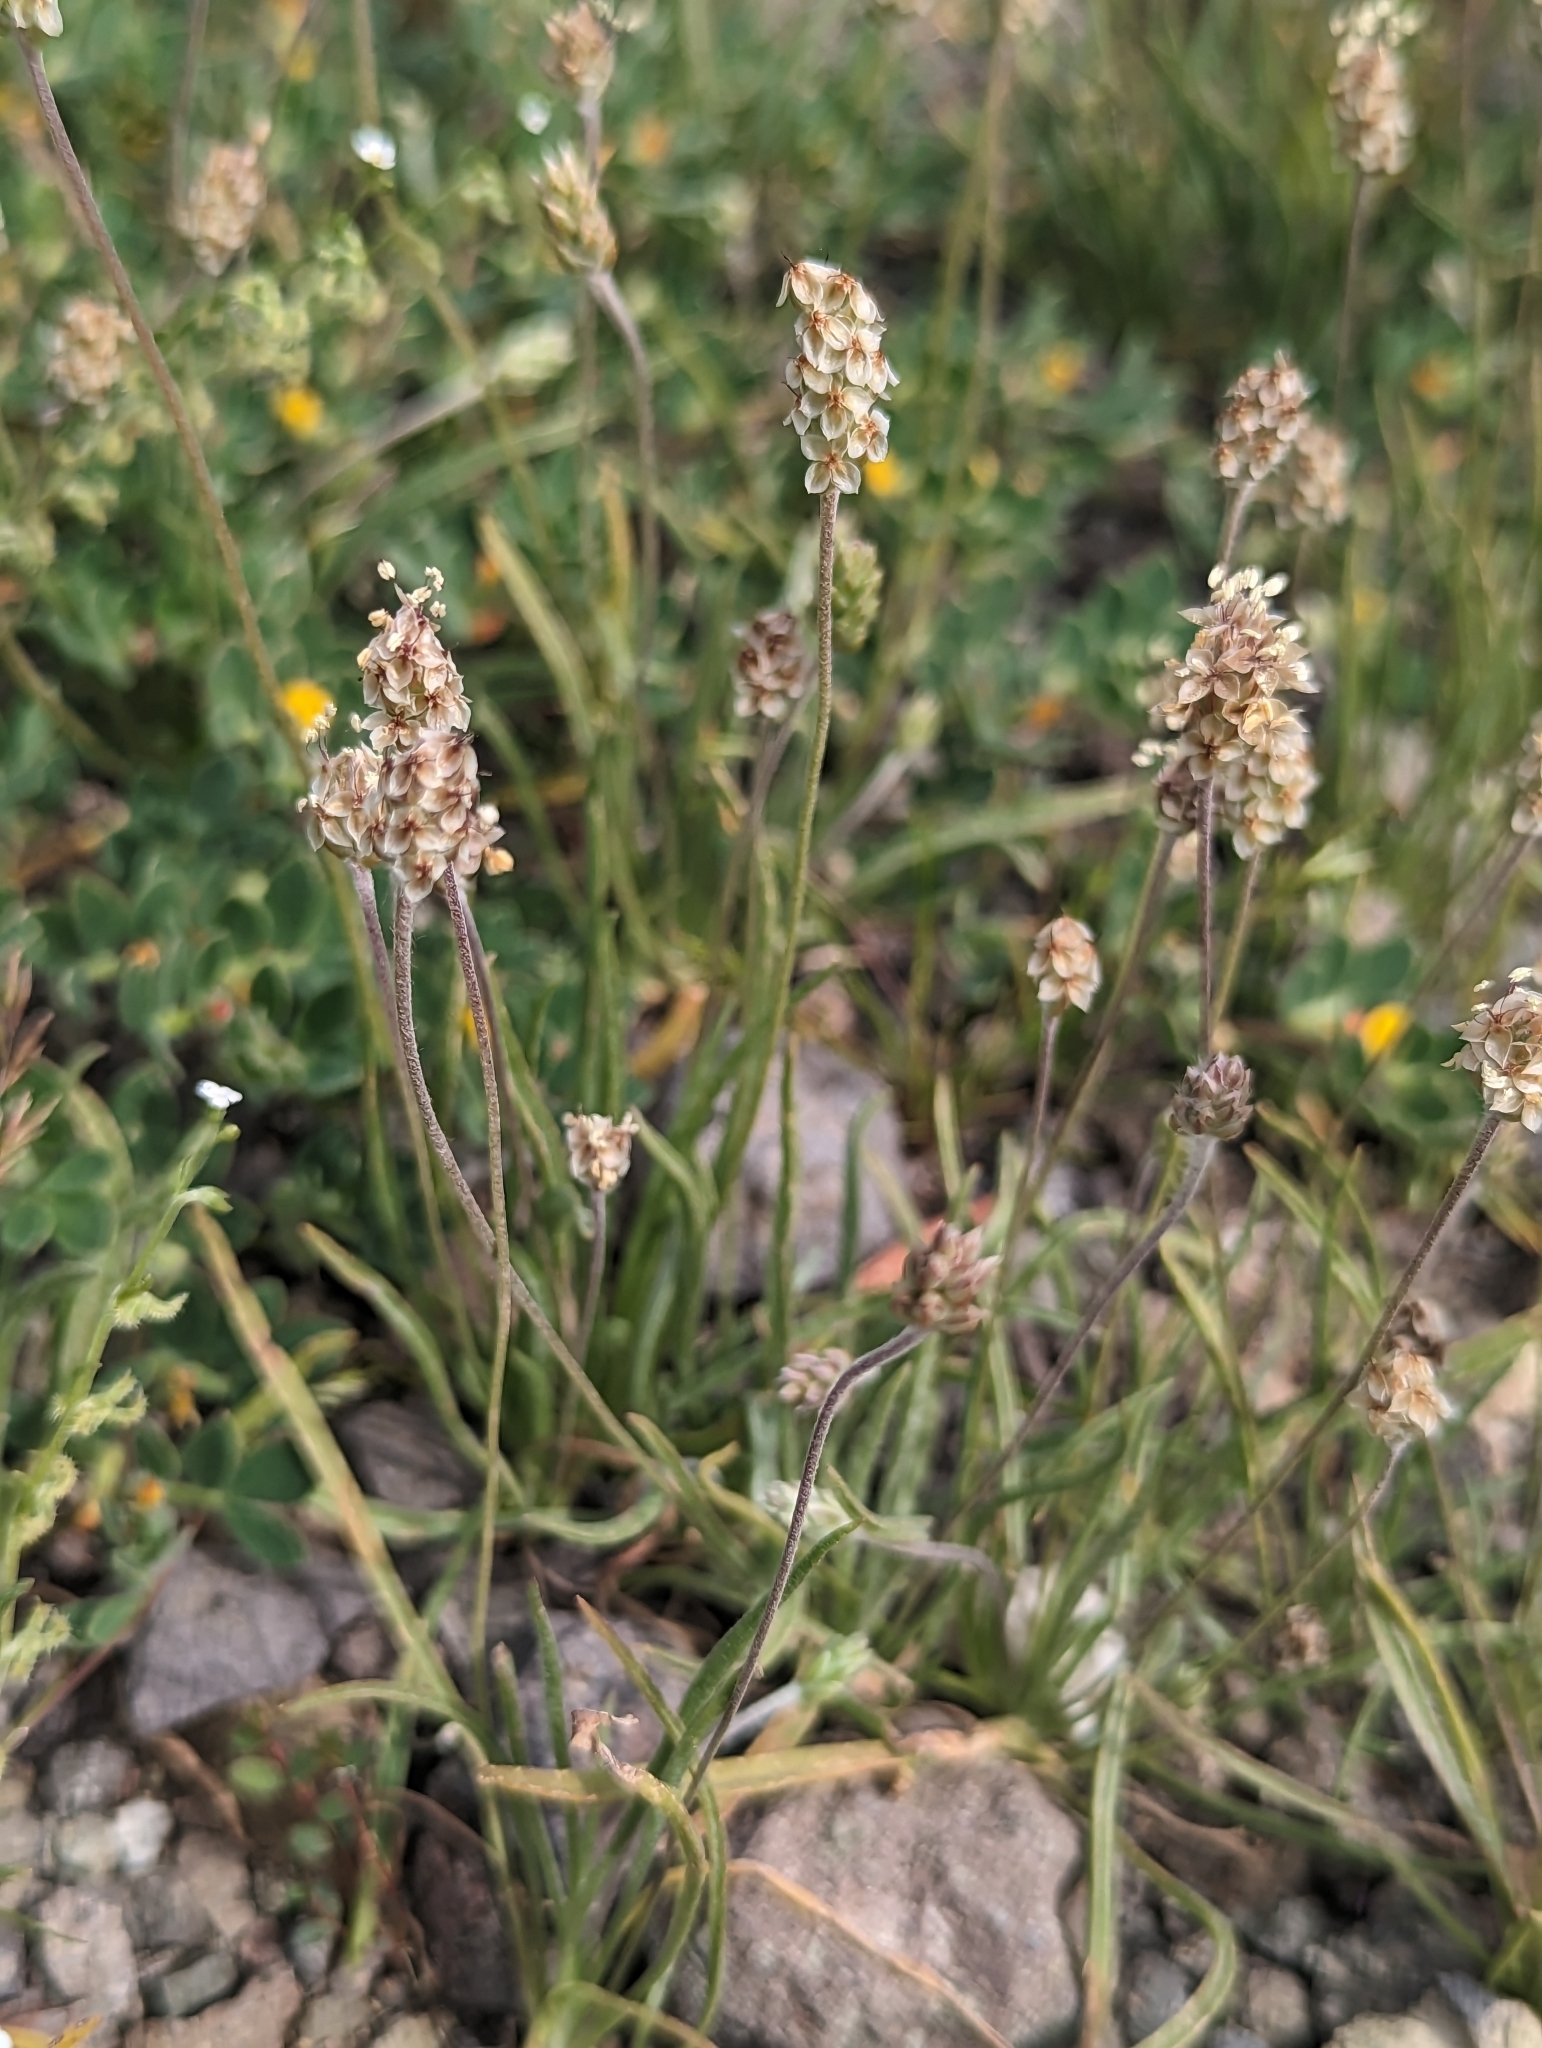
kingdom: Plantae
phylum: Tracheophyta
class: Magnoliopsida
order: Lamiales
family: Plantaginaceae
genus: Plantago
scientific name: Plantago ovata
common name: Blond plantain
